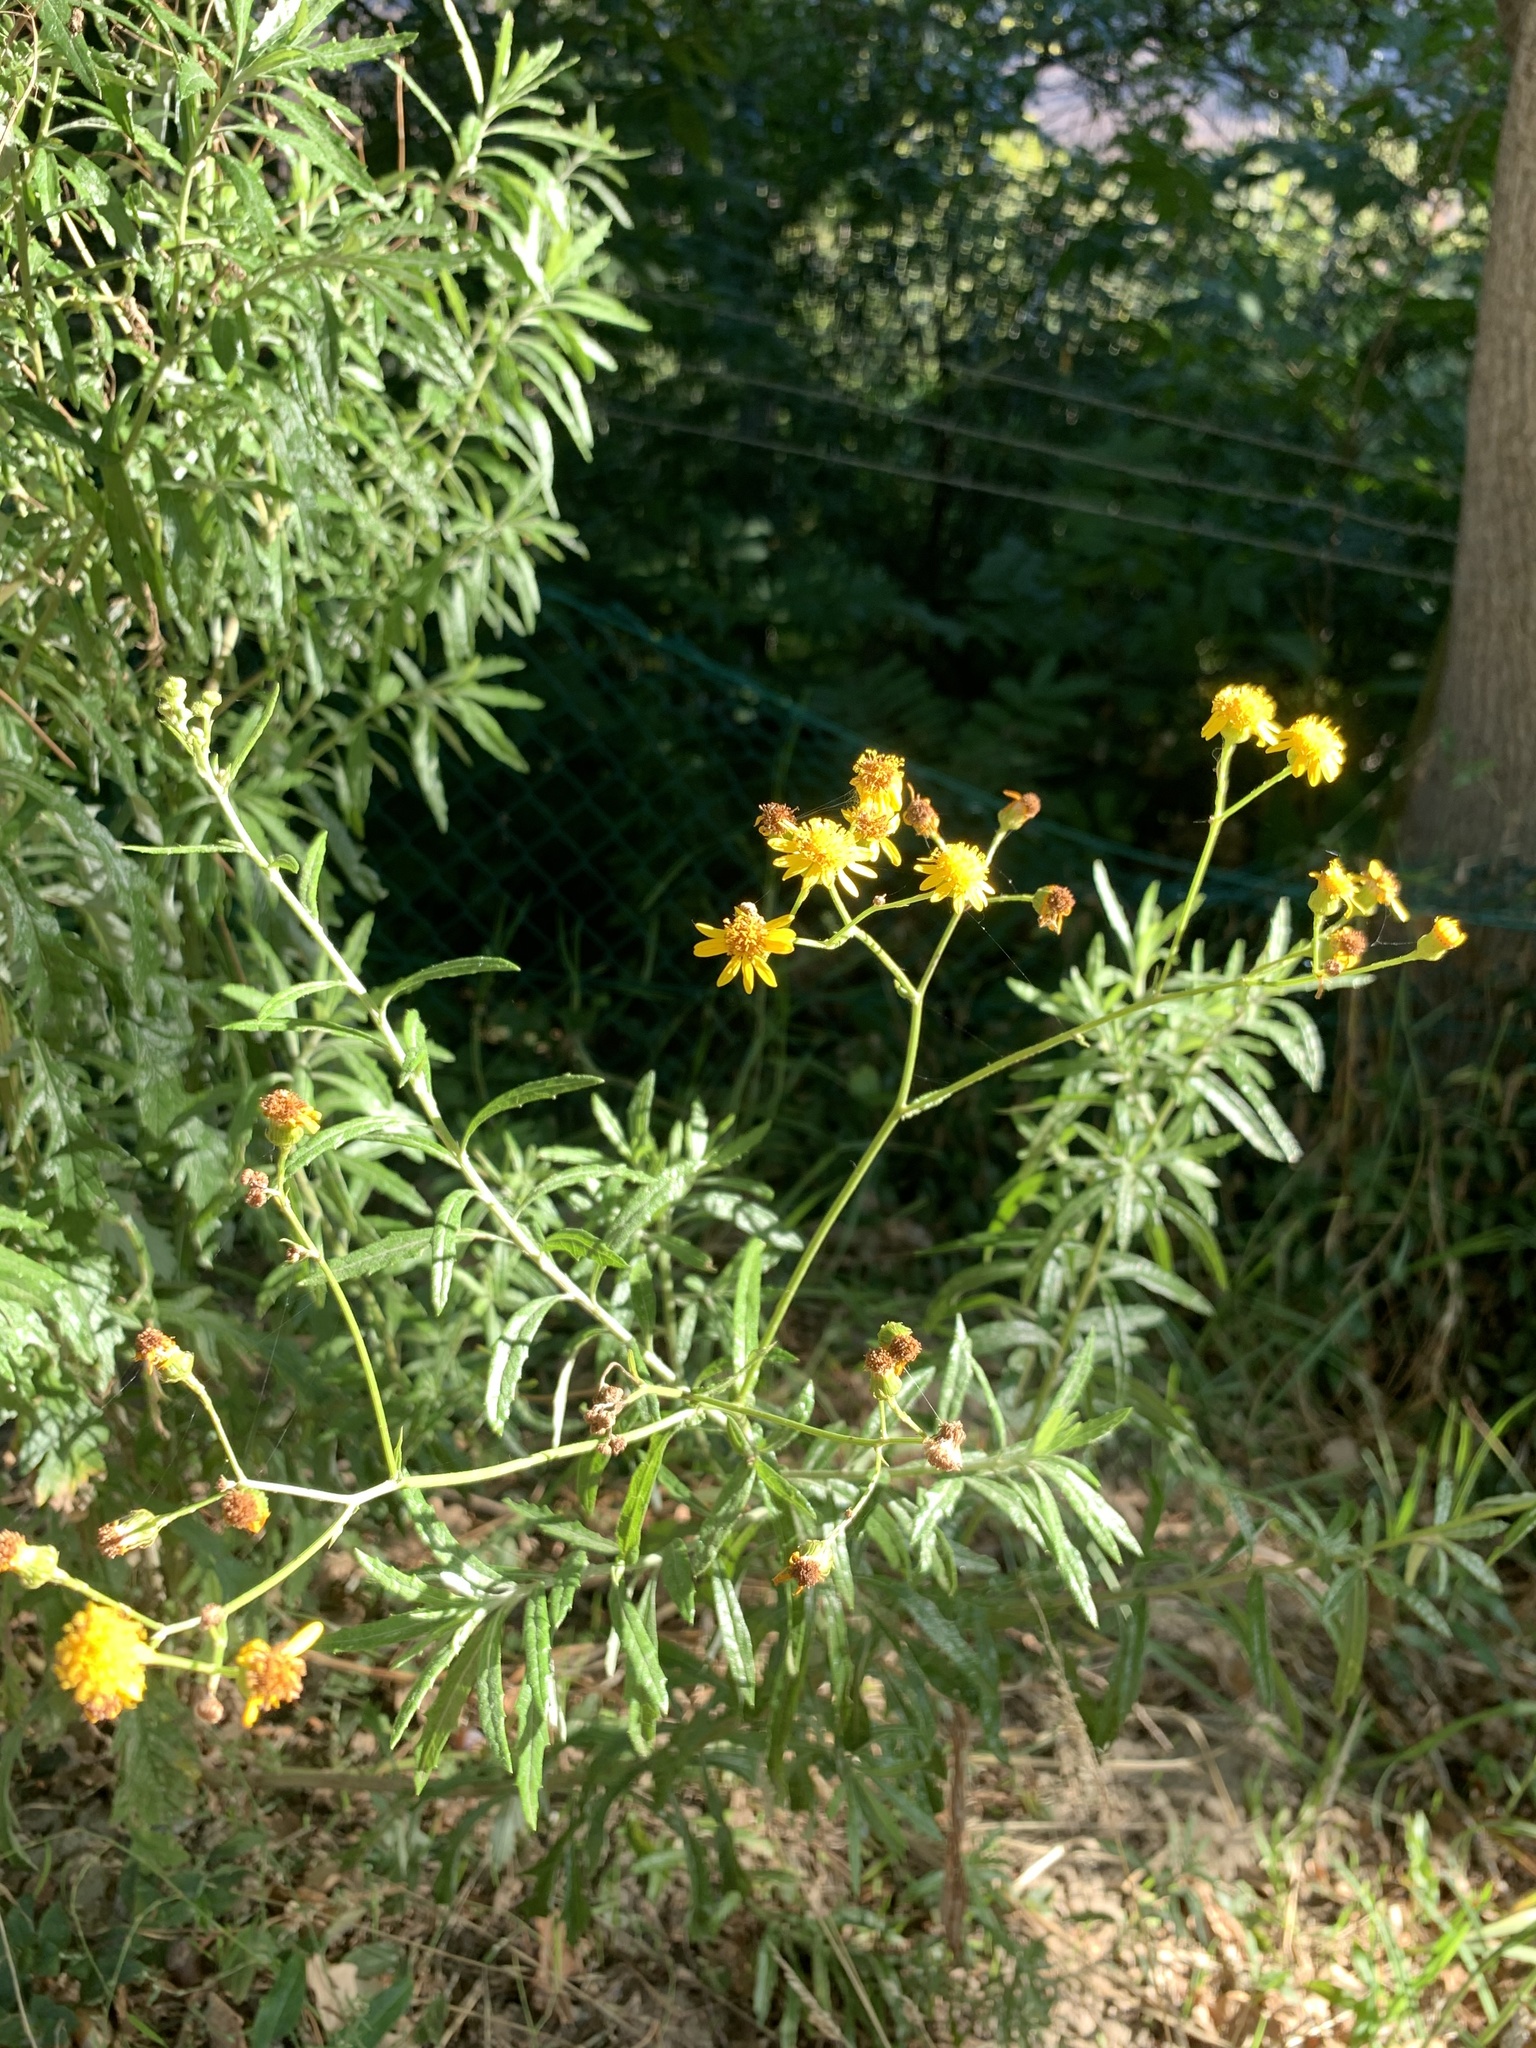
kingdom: Plantae
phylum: Tracheophyta
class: Magnoliopsida
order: Asterales
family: Asteraceae
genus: Senecio
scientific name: Senecio pterophorus
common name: Shoddy ragwort
